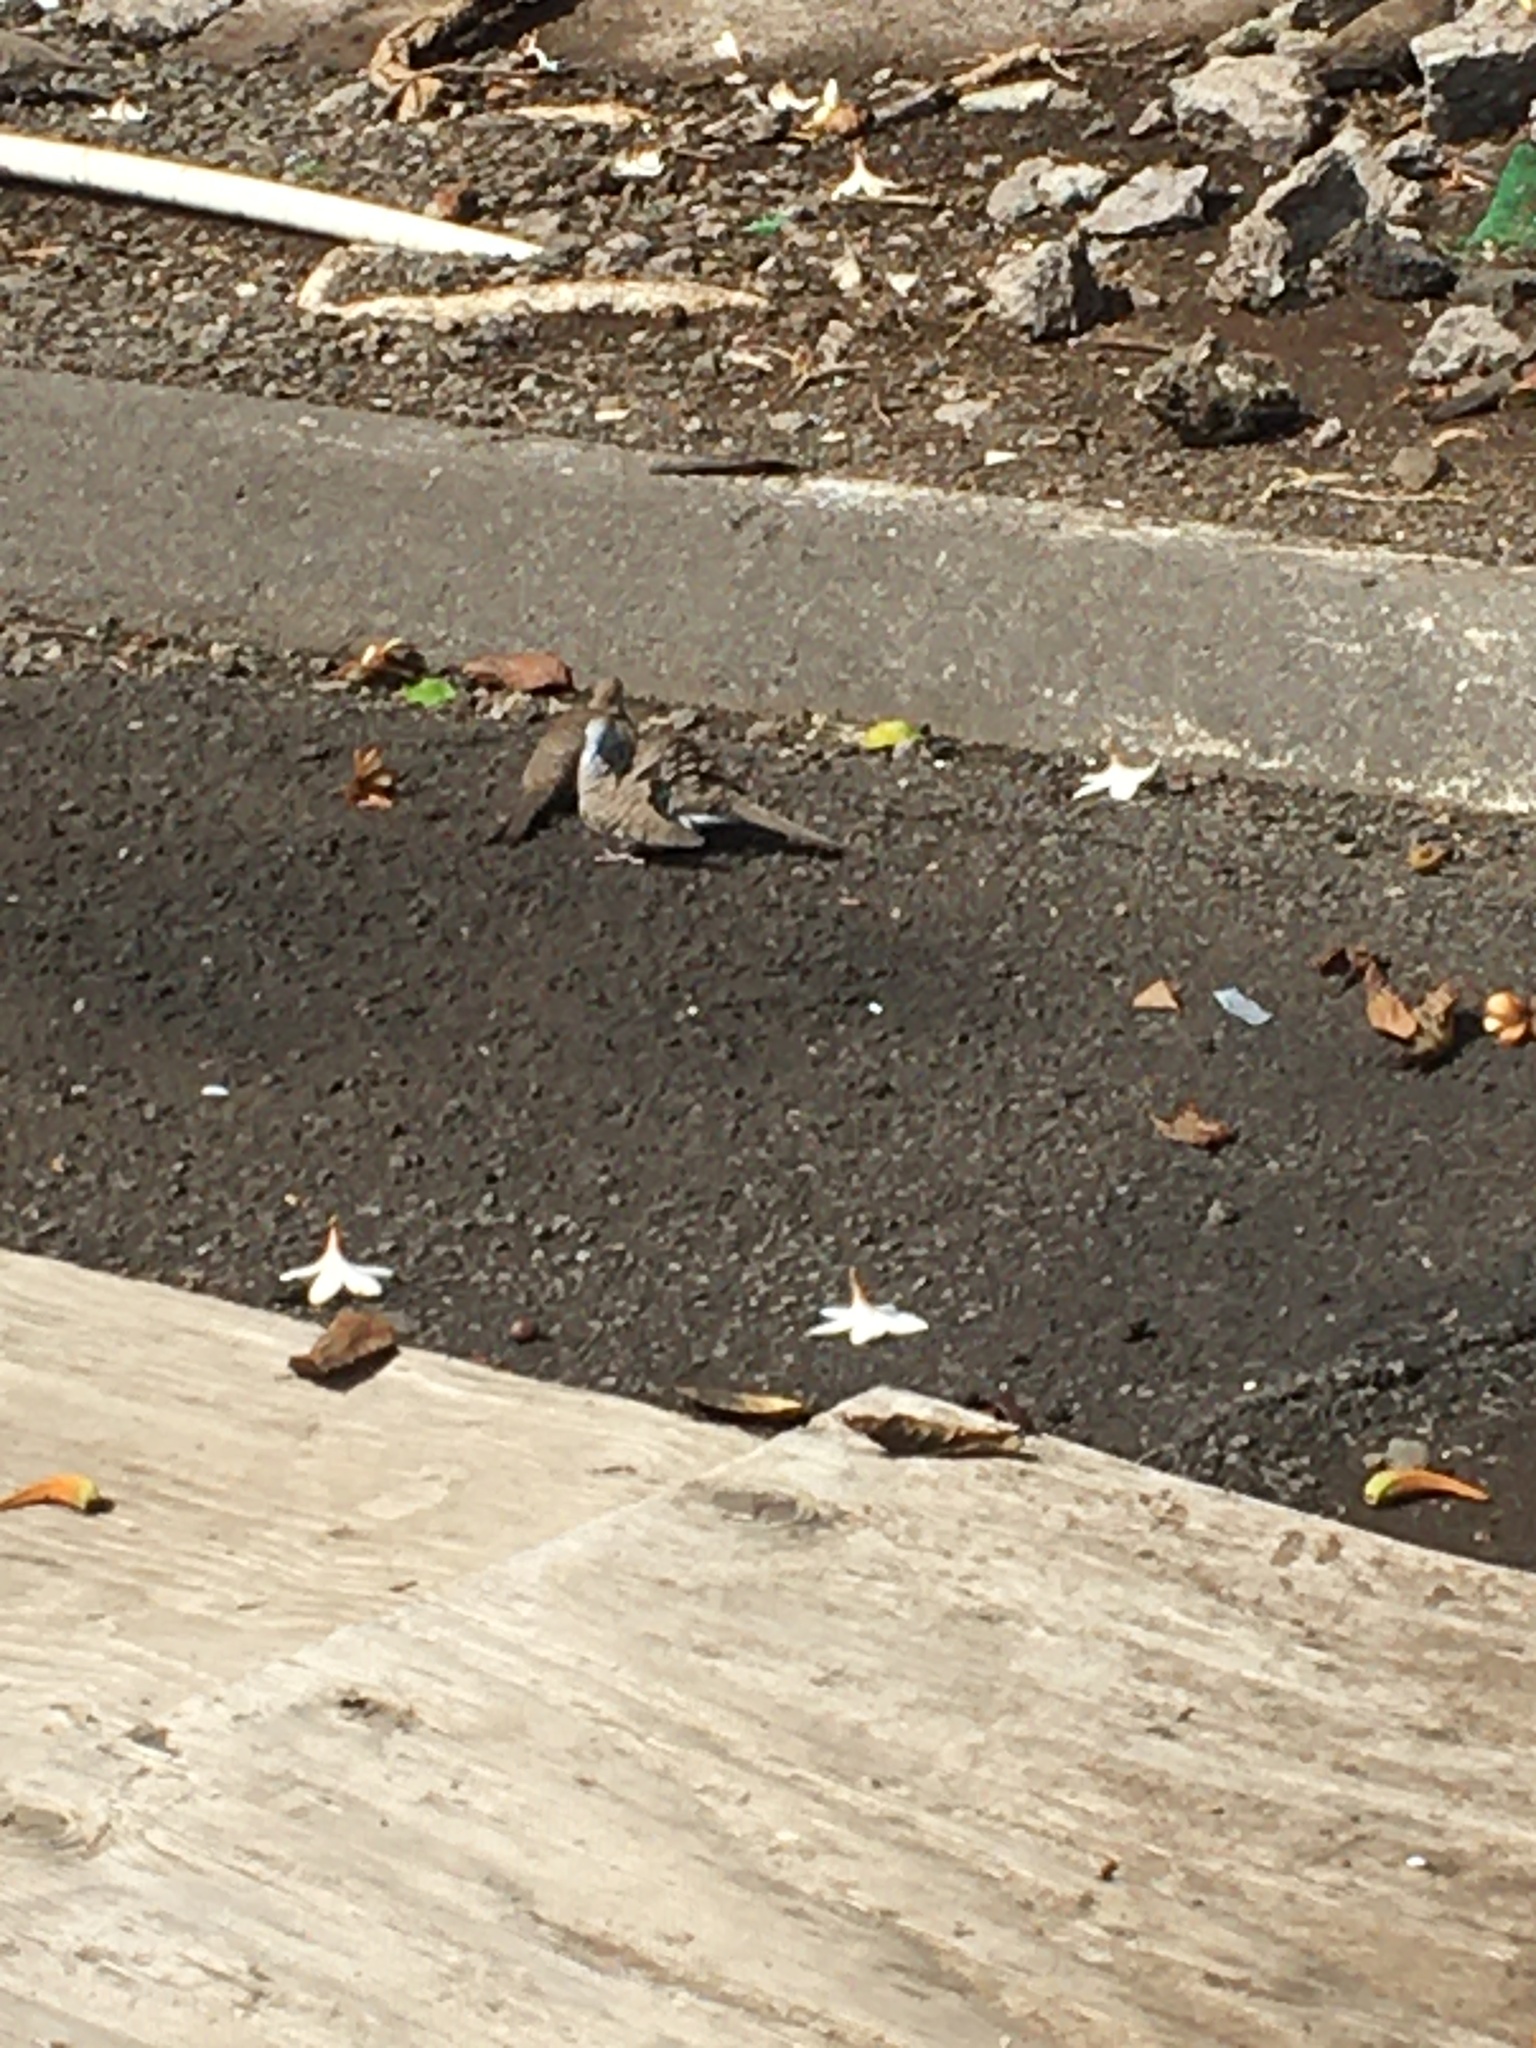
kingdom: Animalia
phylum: Chordata
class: Aves
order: Columbiformes
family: Columbidae
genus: Geopelia
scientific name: Geopelia striata
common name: Zebra dove
